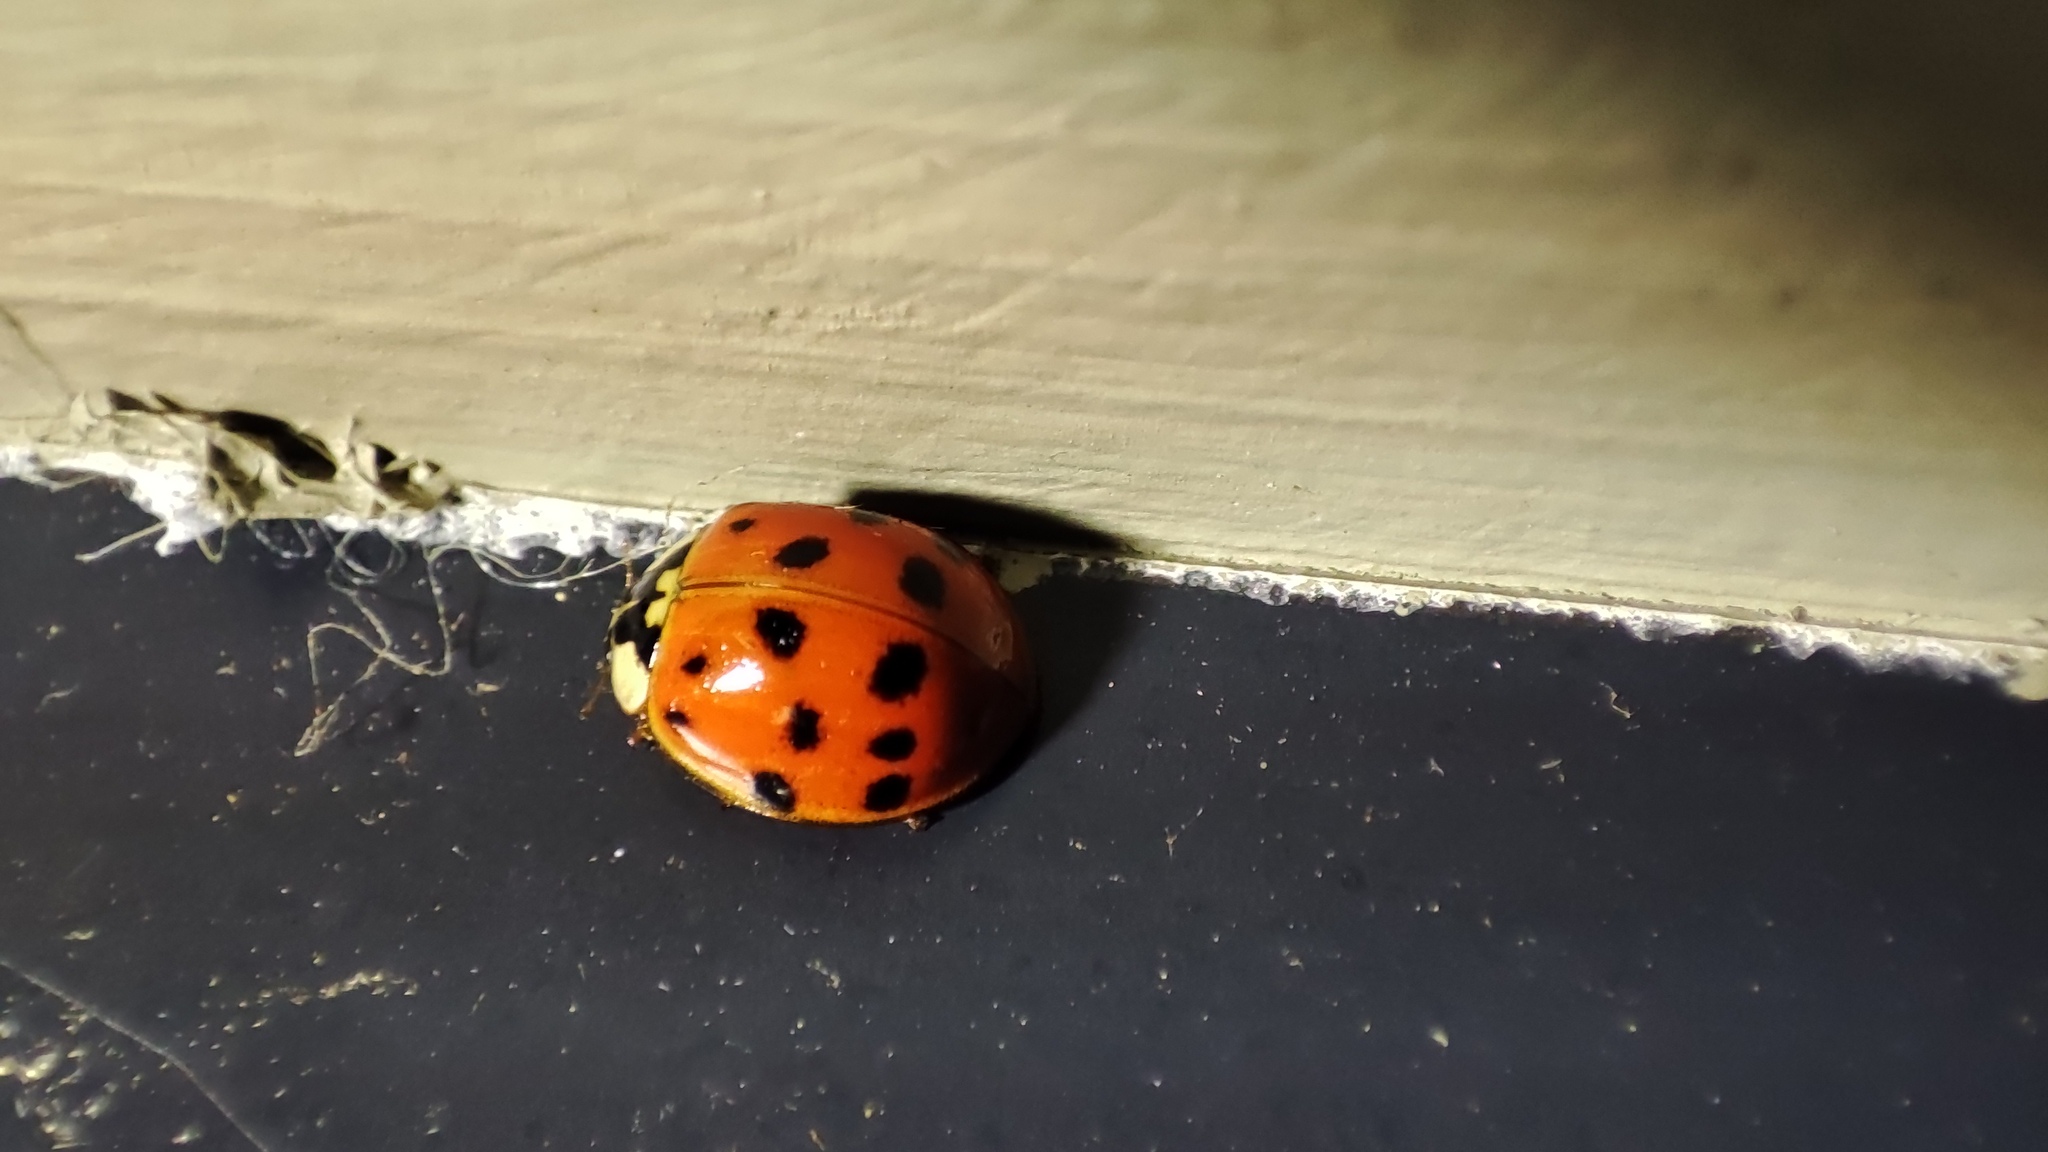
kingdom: Animalia
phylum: Arthropoda
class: Insecta
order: Coleoptera
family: Coccinellidae
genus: Harmonia
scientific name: Harmonia axyridis
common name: Harlequin ladybird
